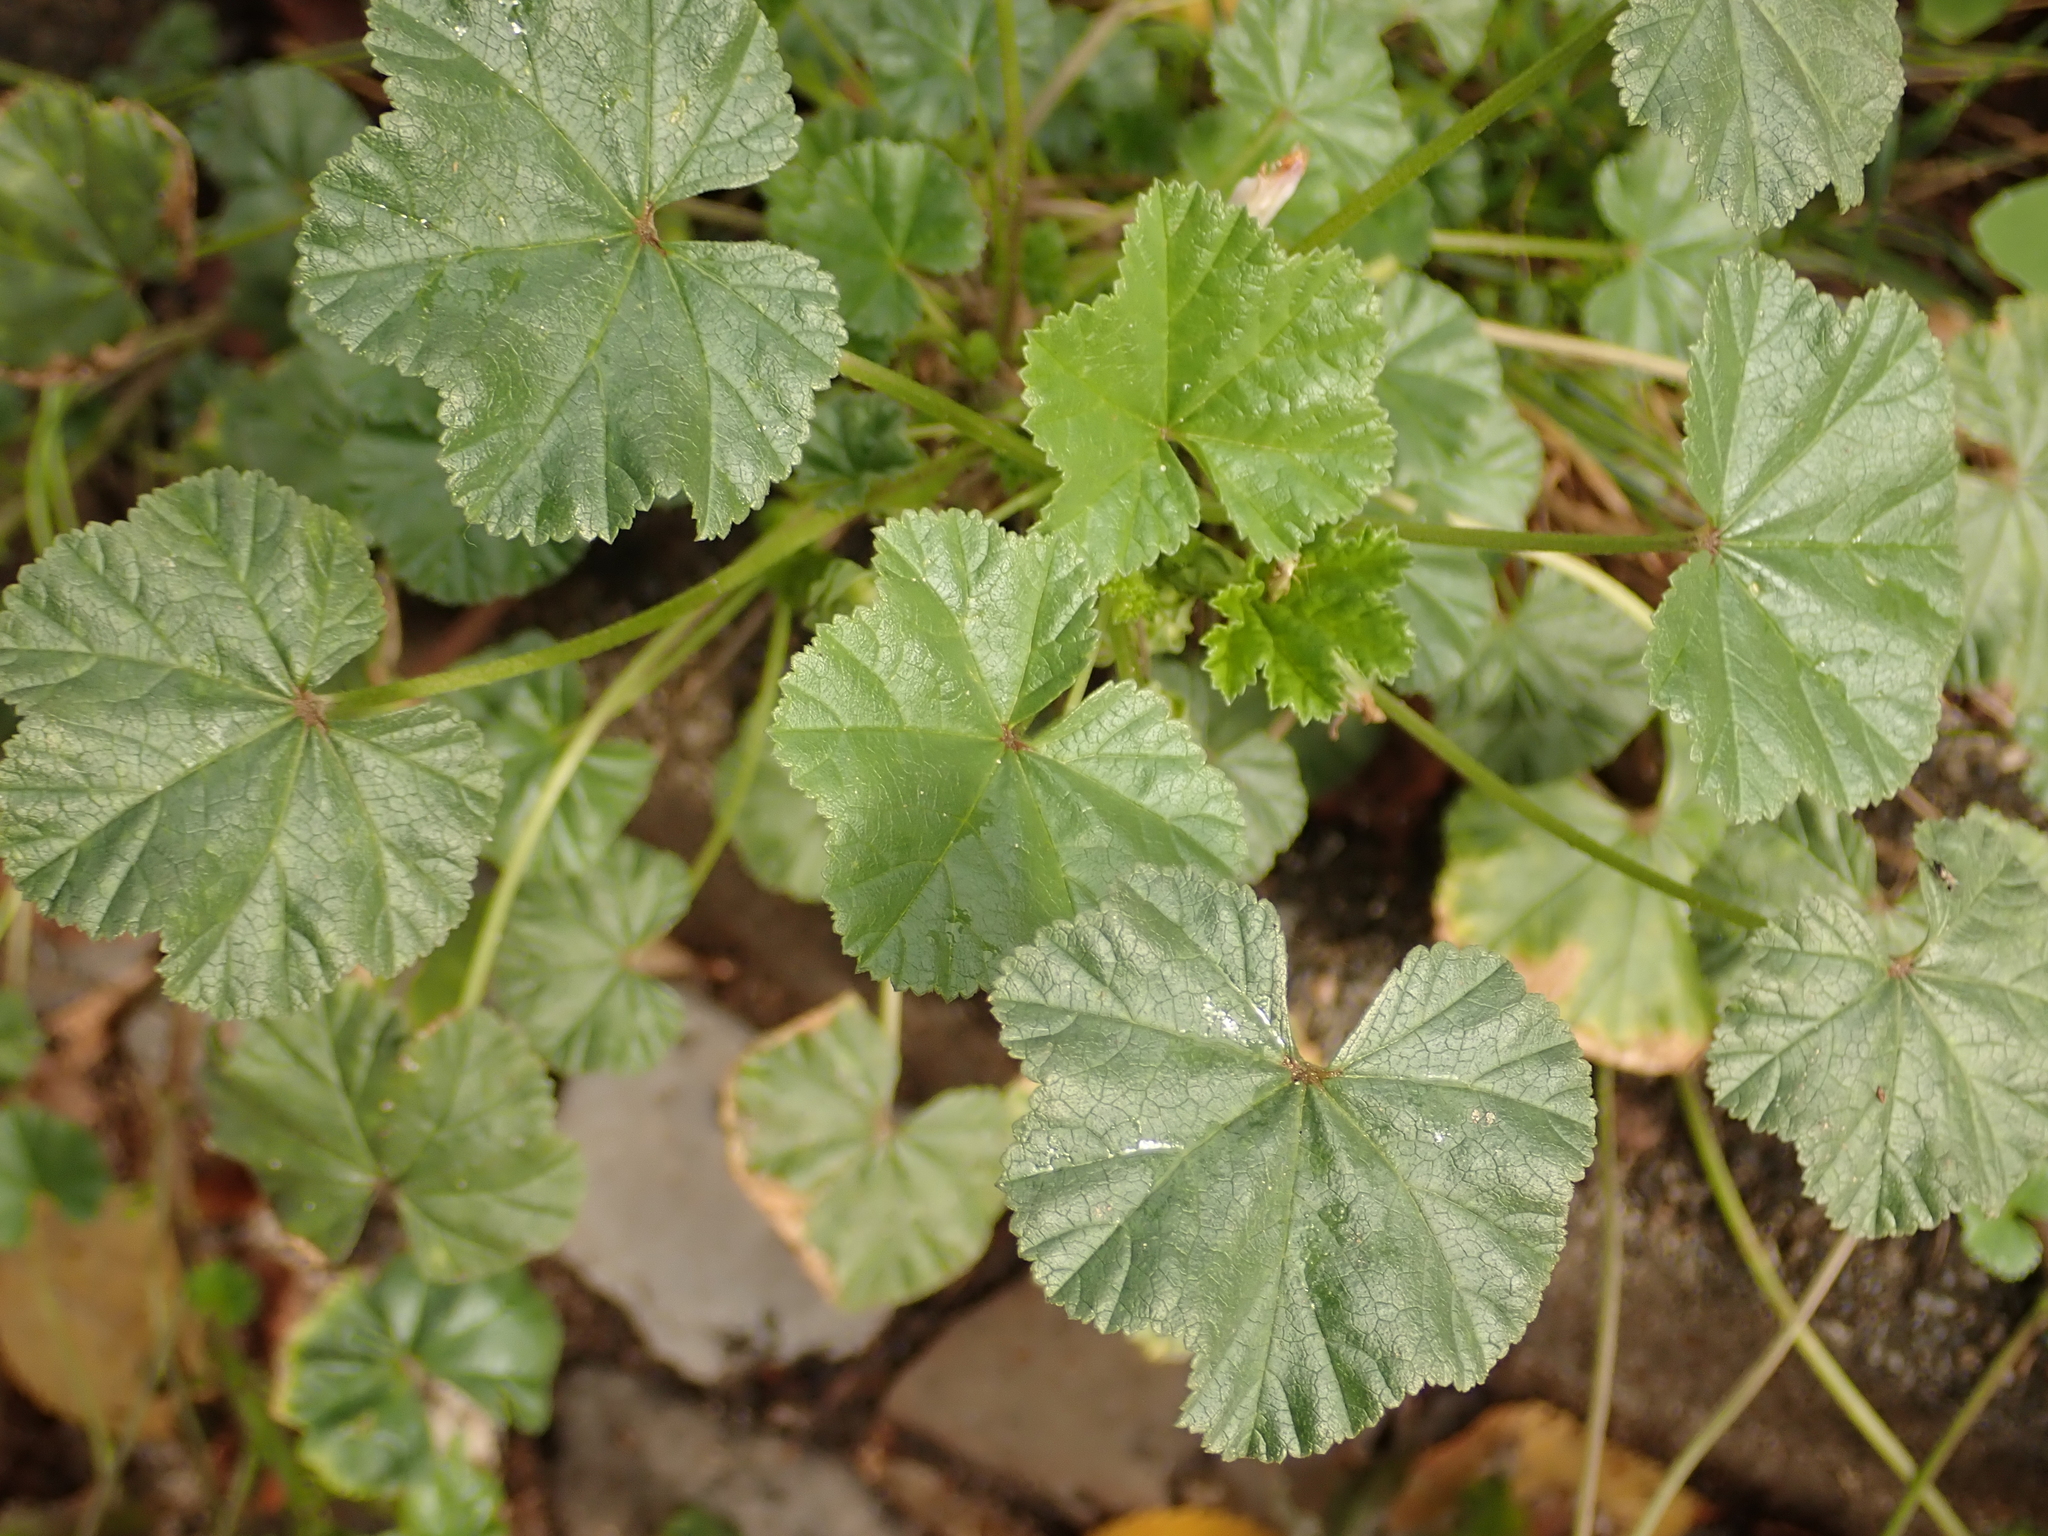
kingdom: Plantae
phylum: Tracheophyta
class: Magnoliopsida
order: Malvales
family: Malvaceae
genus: Malva
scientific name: Malva neglecta
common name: Common mallow
